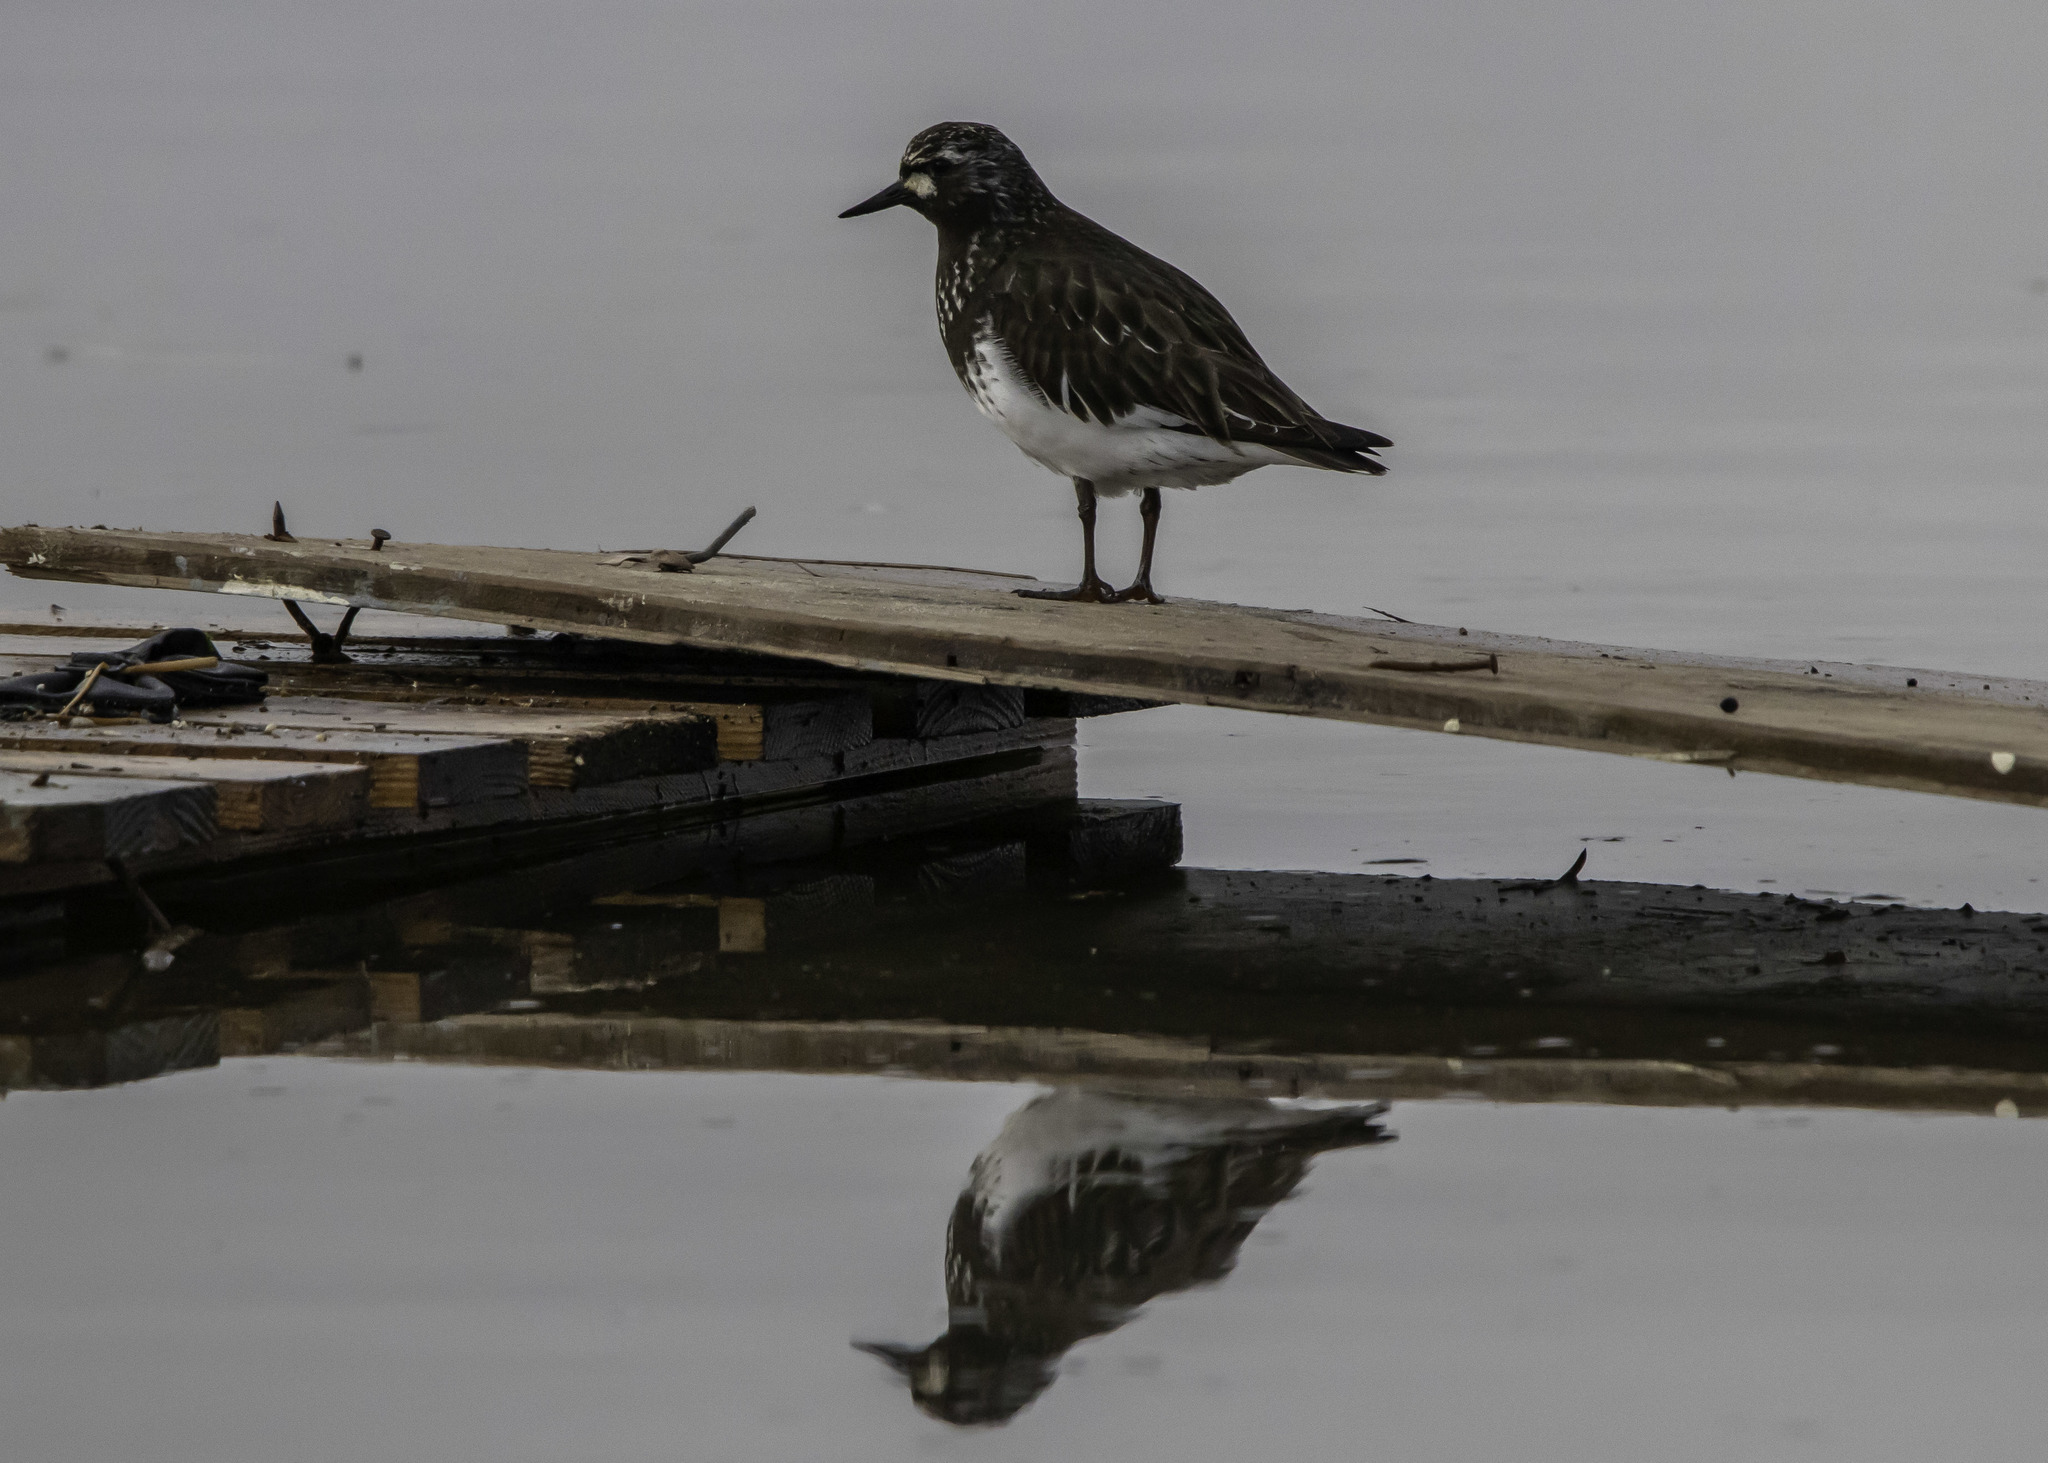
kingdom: Animalia
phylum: Chordata
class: Aves
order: Charadriiformes
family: Scolopacidae
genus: Arenaria
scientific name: Arenaria melanocephala
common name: Black turnstone
